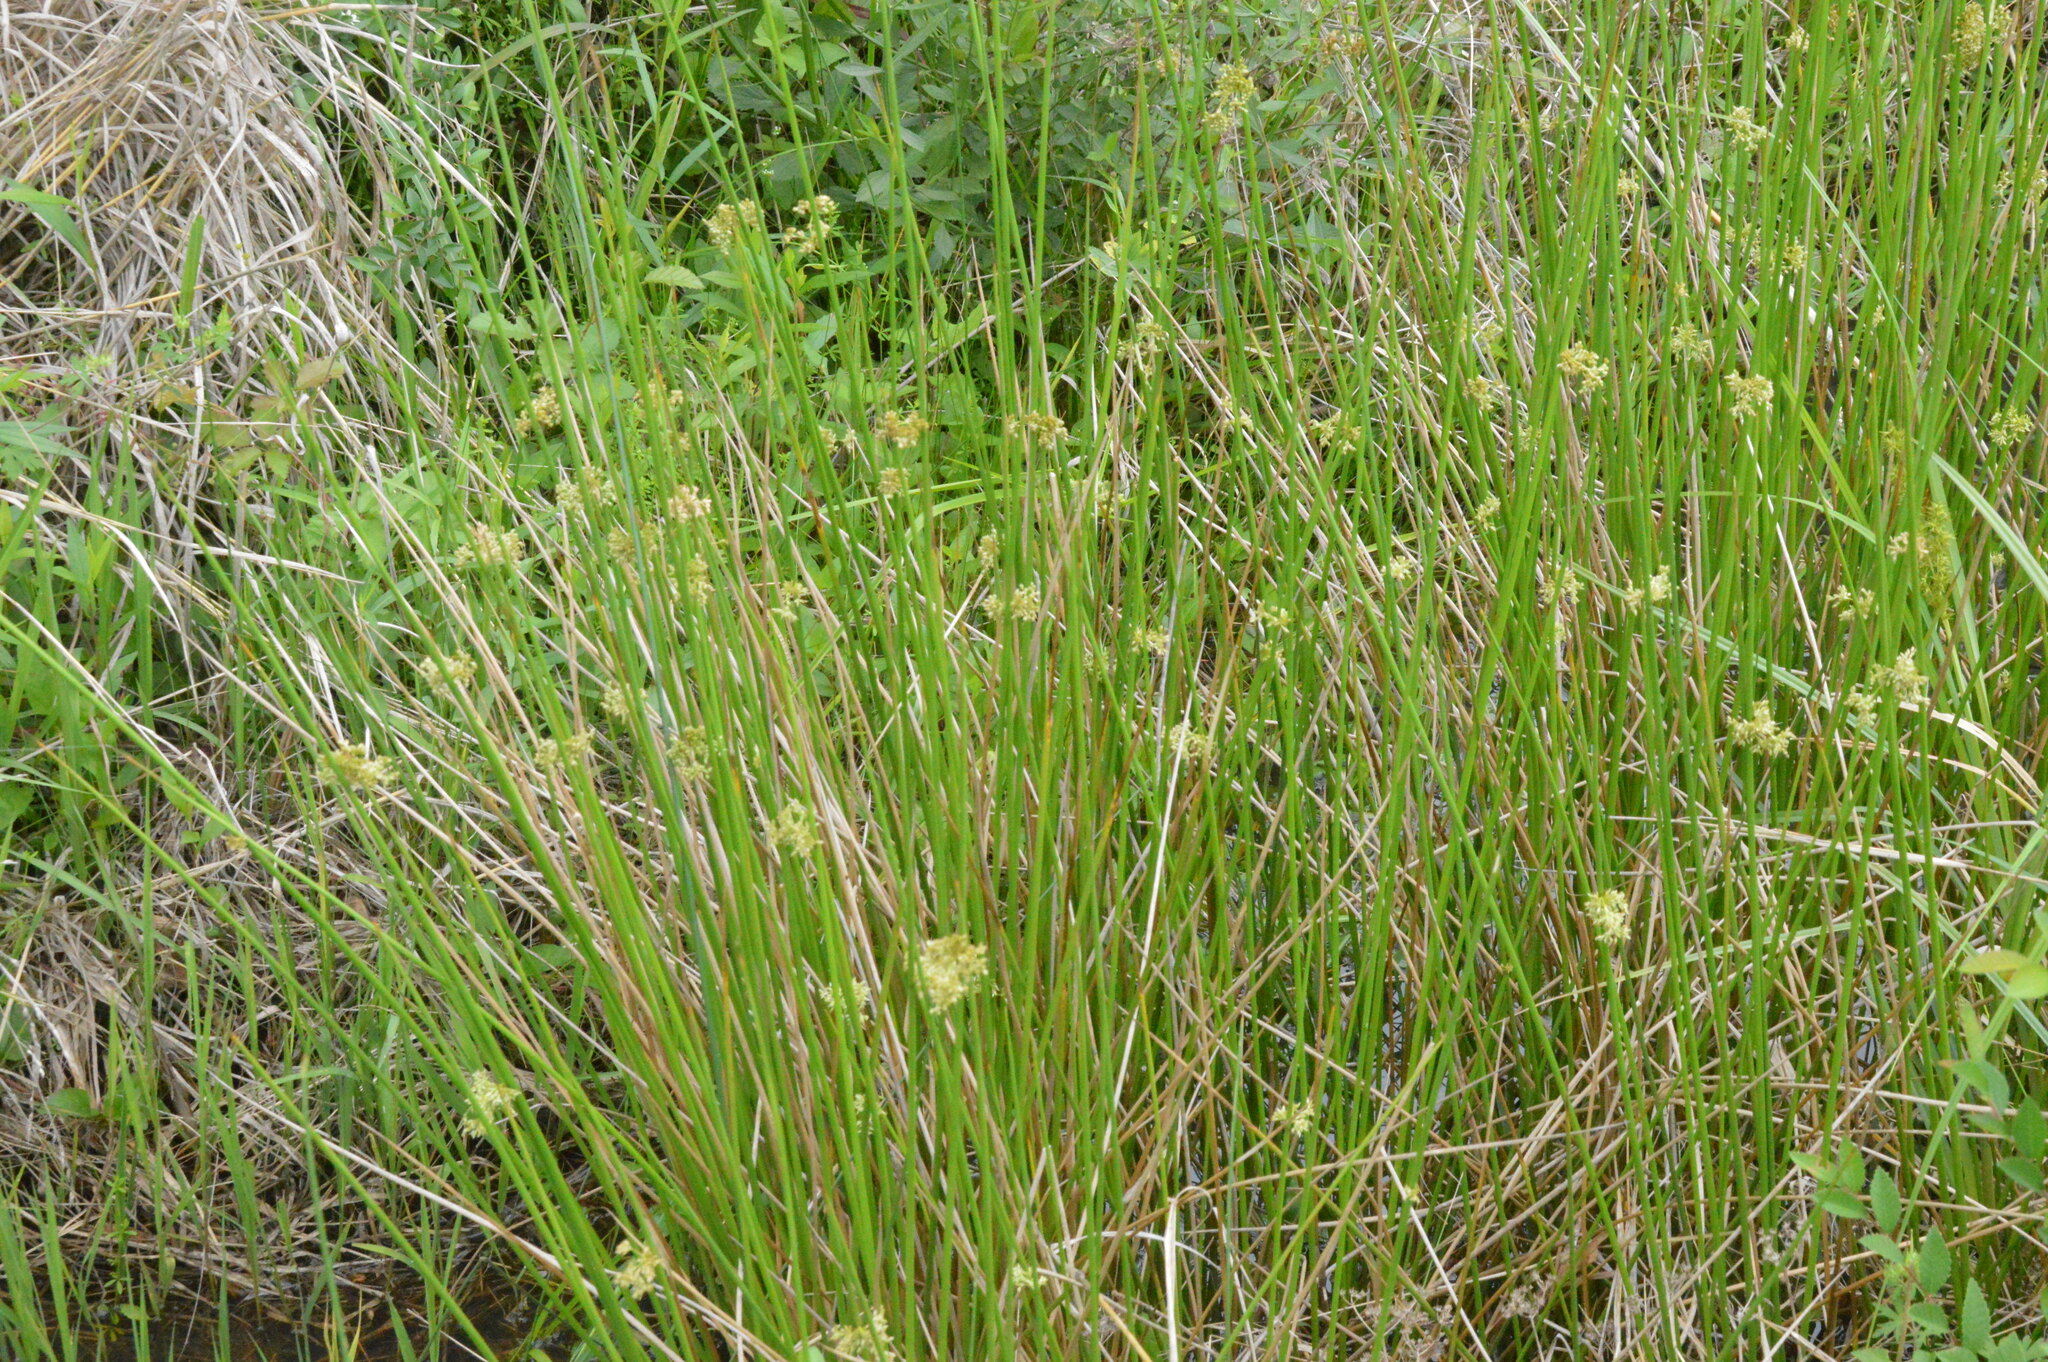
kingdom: Plantae
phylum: Tracheophyta
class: Liliopsida
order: Poales
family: Juncaceae
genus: Juncus
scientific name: Juncus effusus
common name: Soft rush
